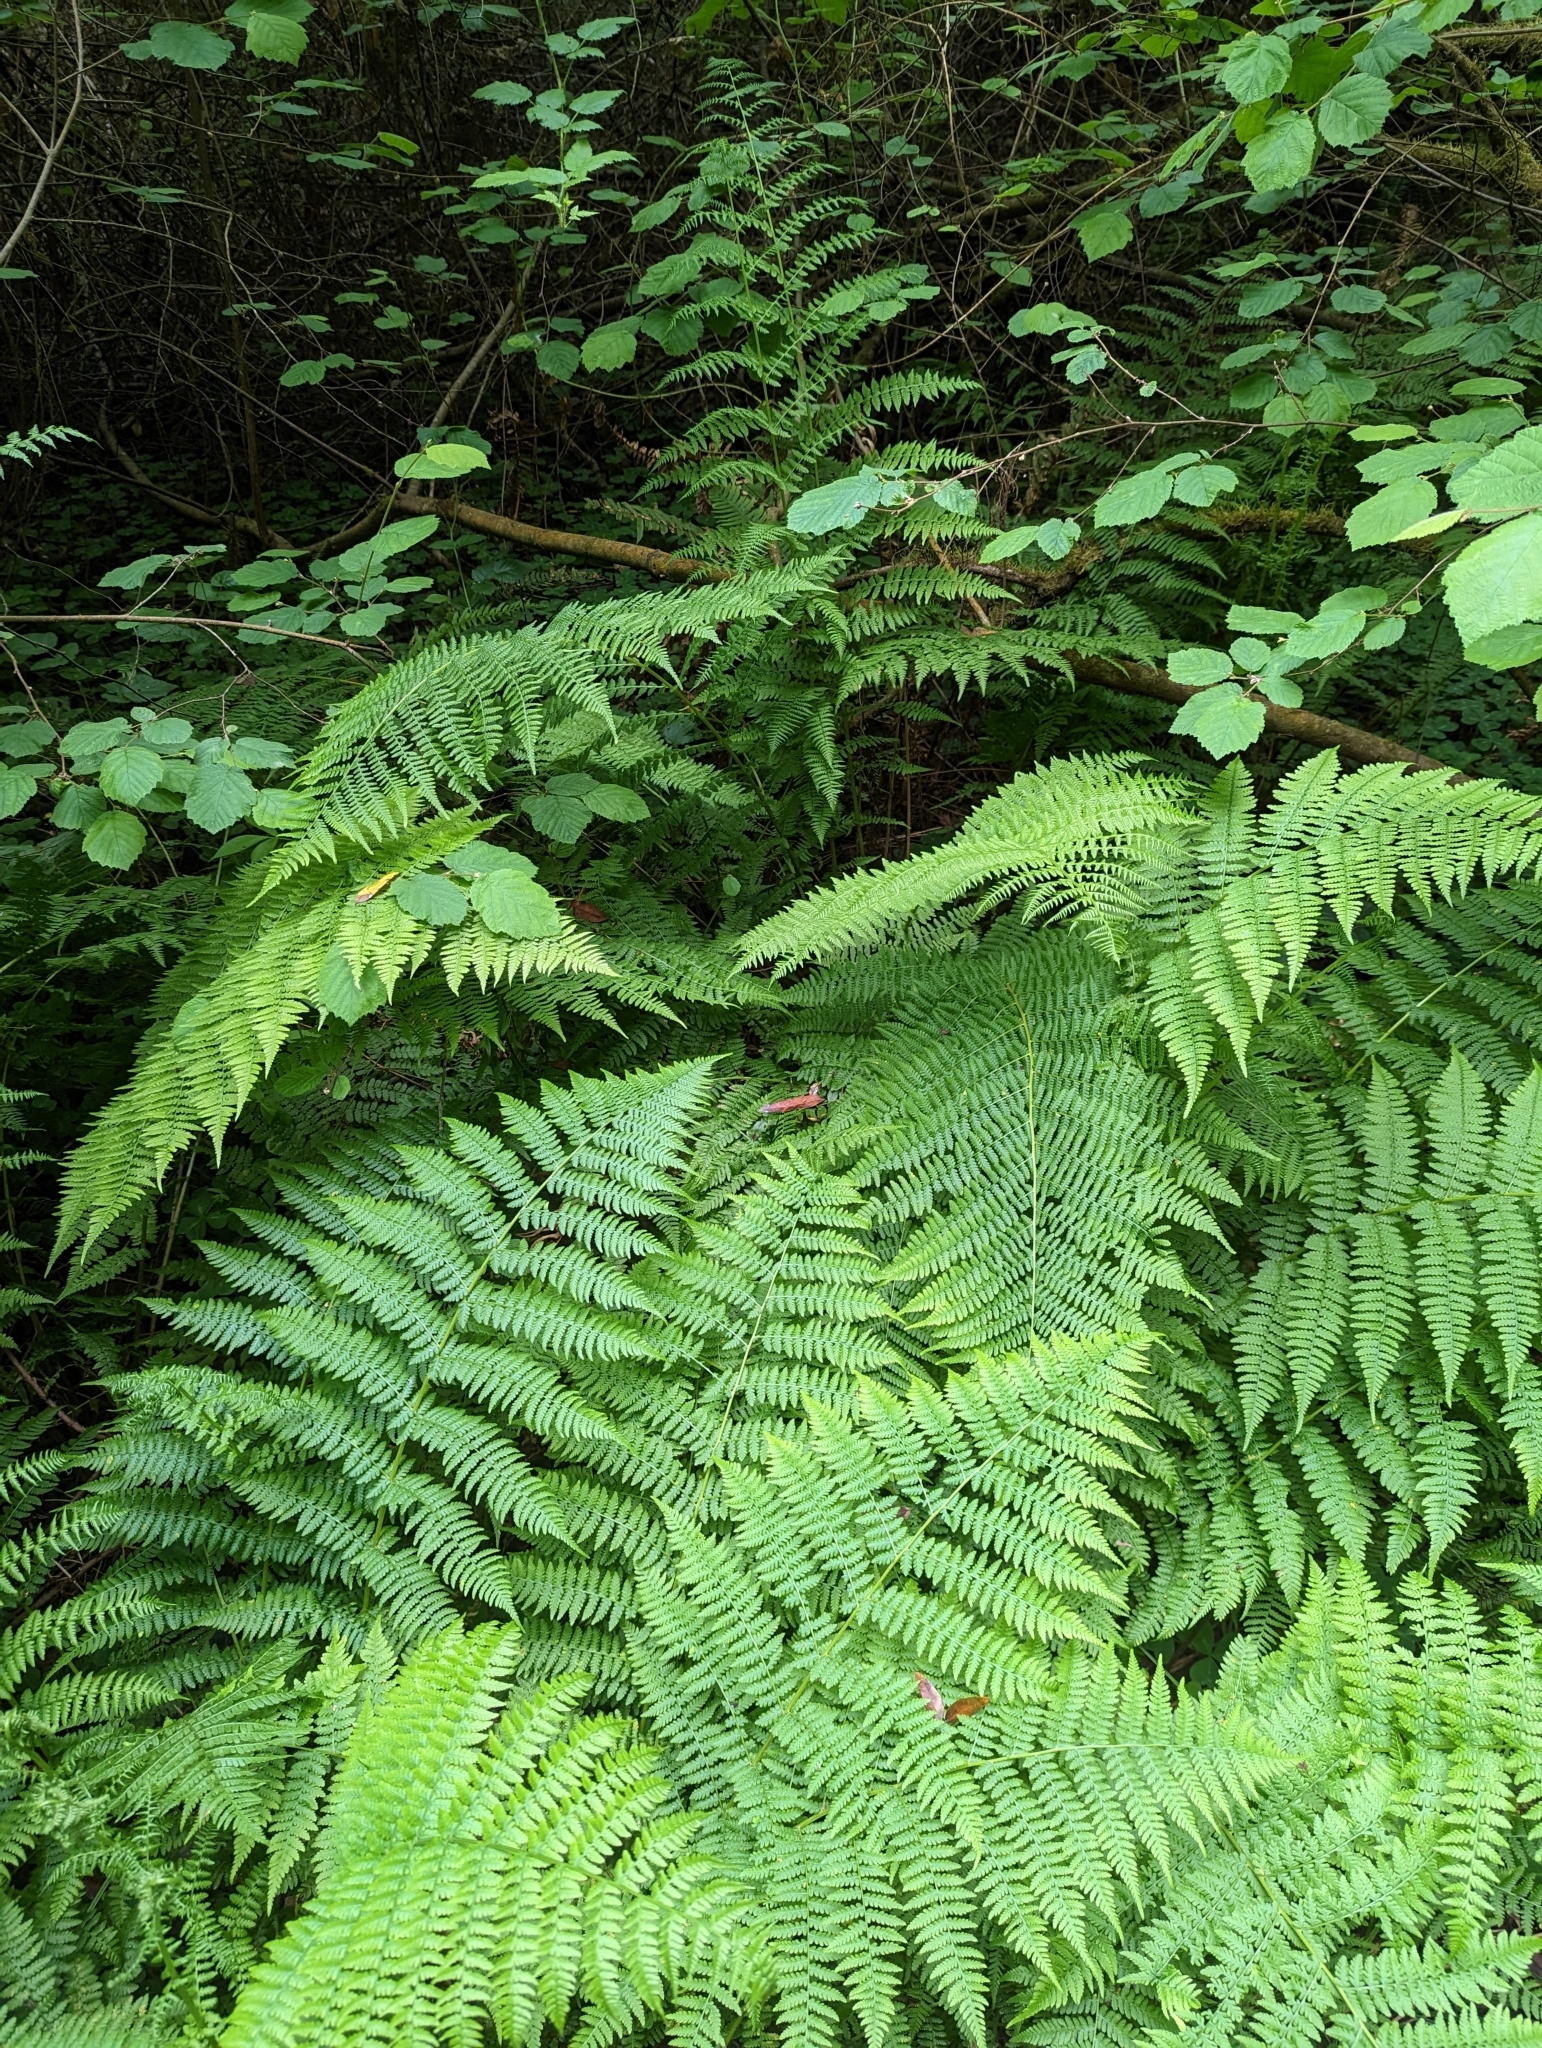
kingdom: Plantae
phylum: Tracheophyta
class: Polypodiopsida
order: Polypodiales
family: Athyriaceae
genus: Athyrium
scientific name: Athyrium filix-femina
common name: Lady fern
